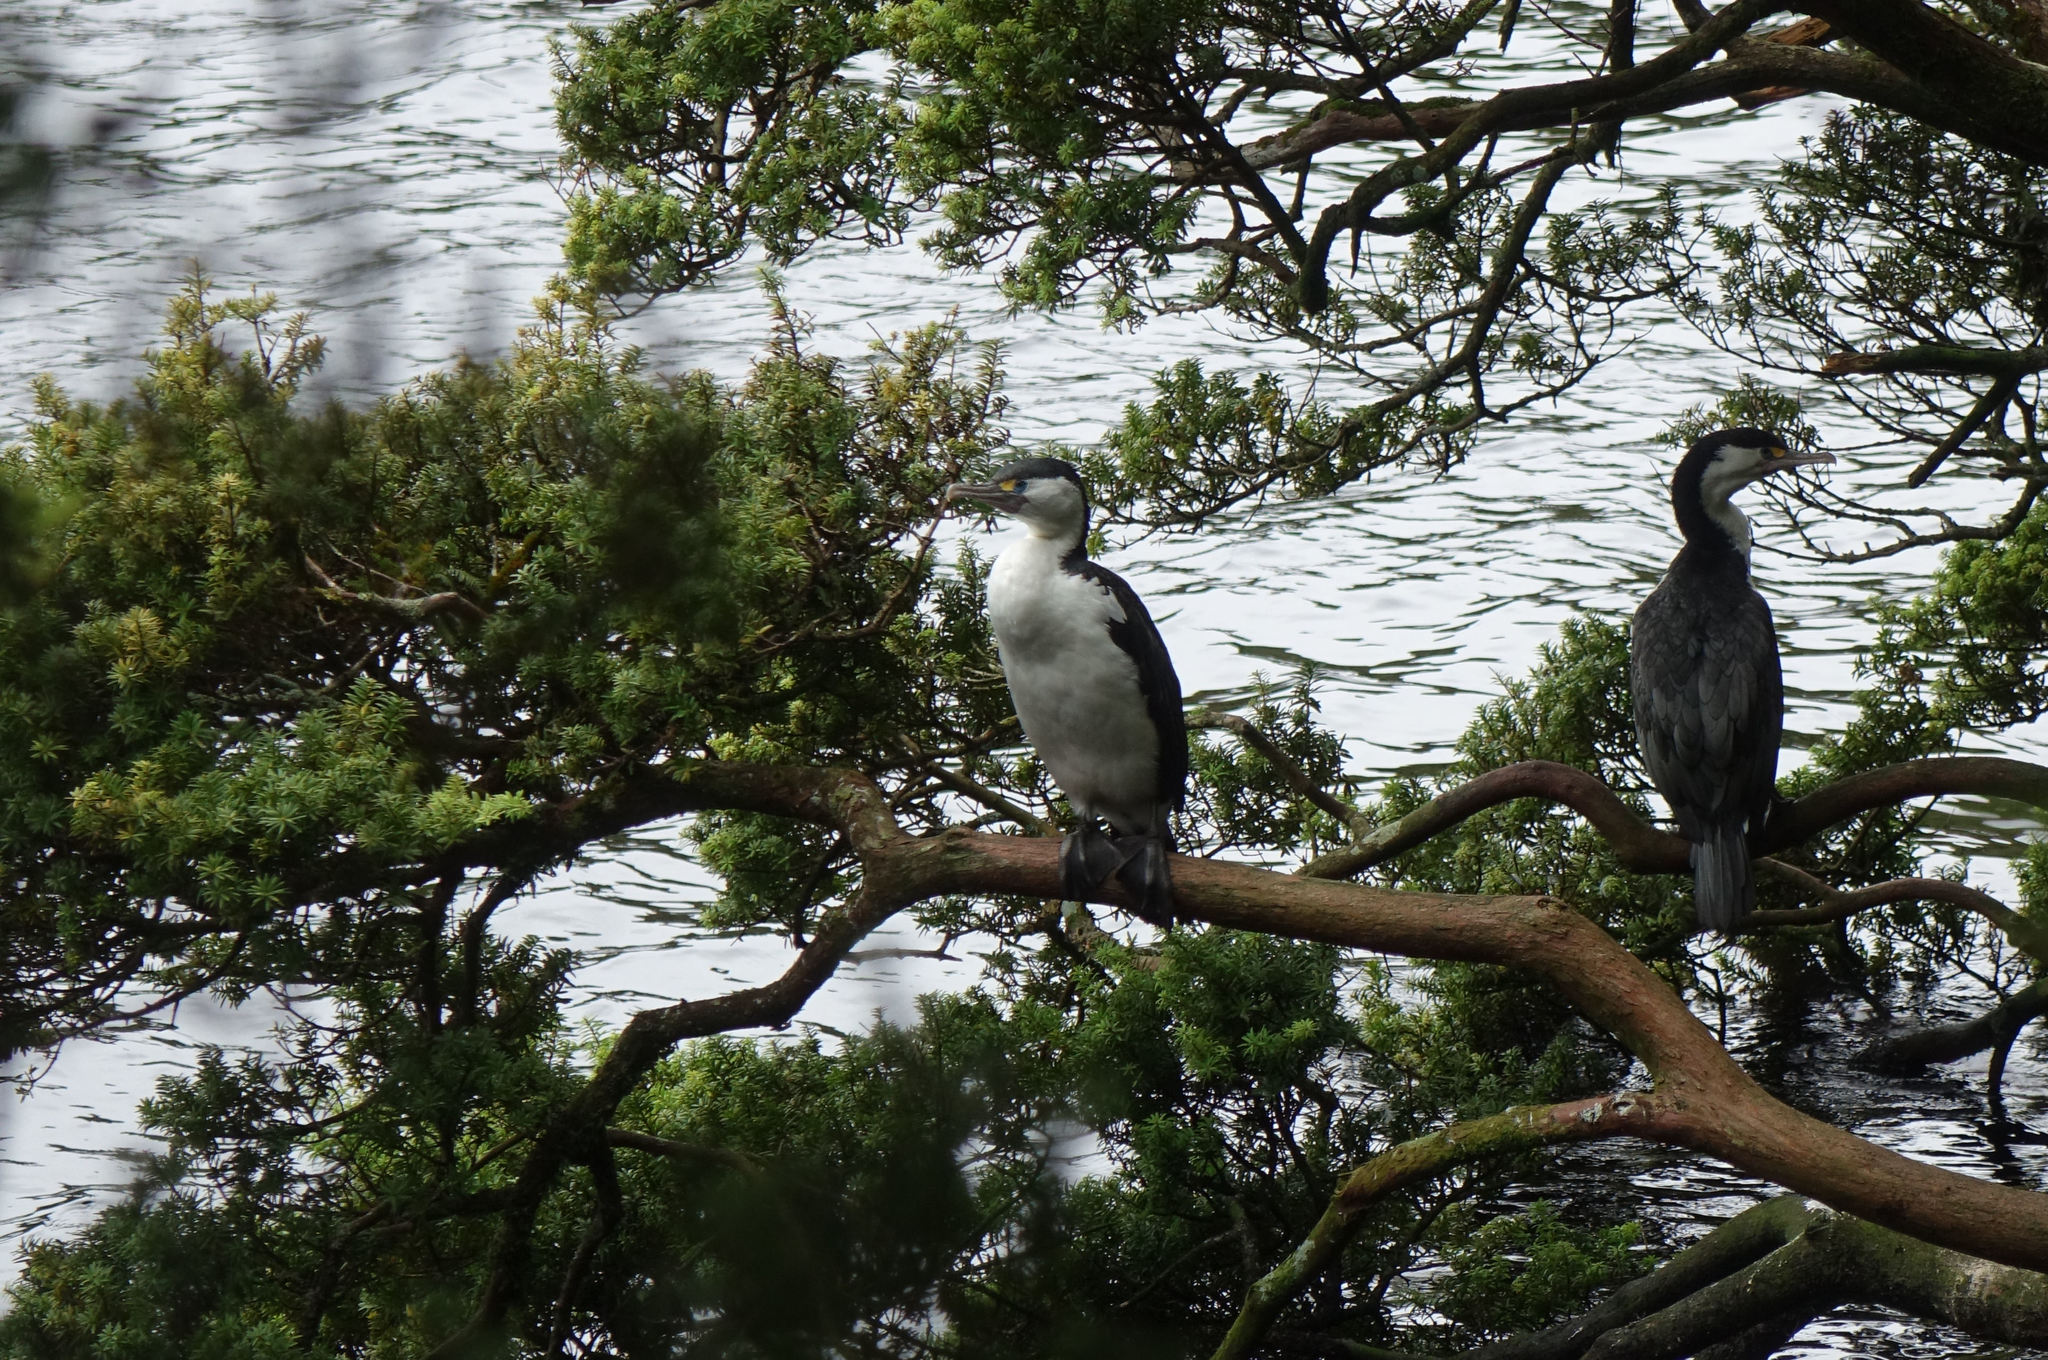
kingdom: Animalia
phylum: Chordata
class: Aves
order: Suliformes
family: Phalacrocoracidae
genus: Phalacrocorax
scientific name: Phalacrocorax varius
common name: Pied cormorant
